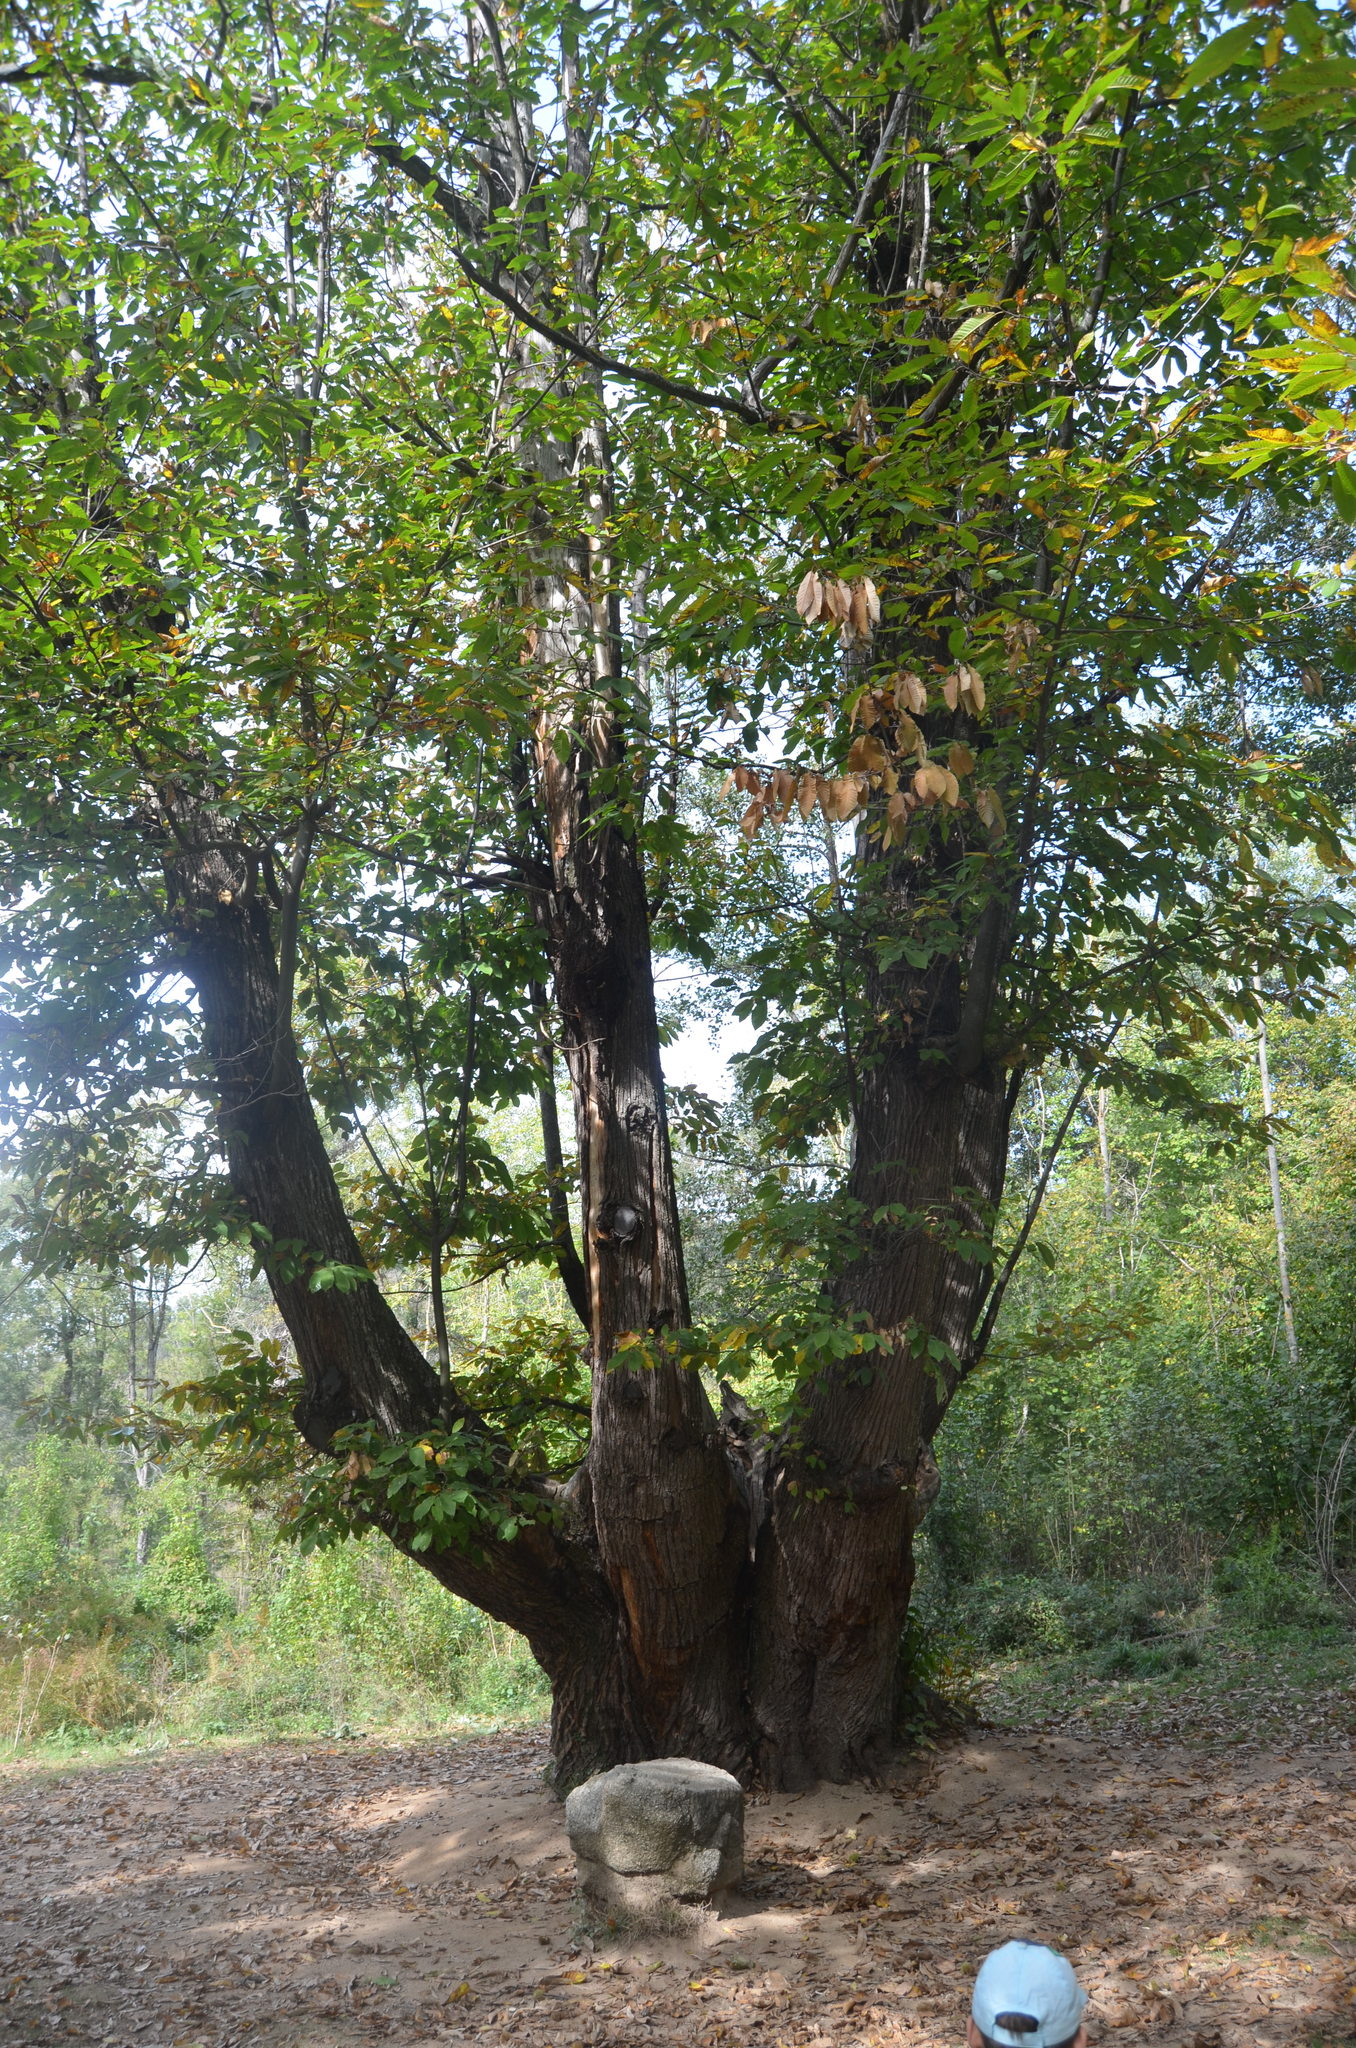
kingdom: Plantae
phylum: Tracheophyta
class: Magnoliopsida
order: Fagales
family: Fagaceae
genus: Castanea
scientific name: Castanea sativa
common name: Sweet chestnut
